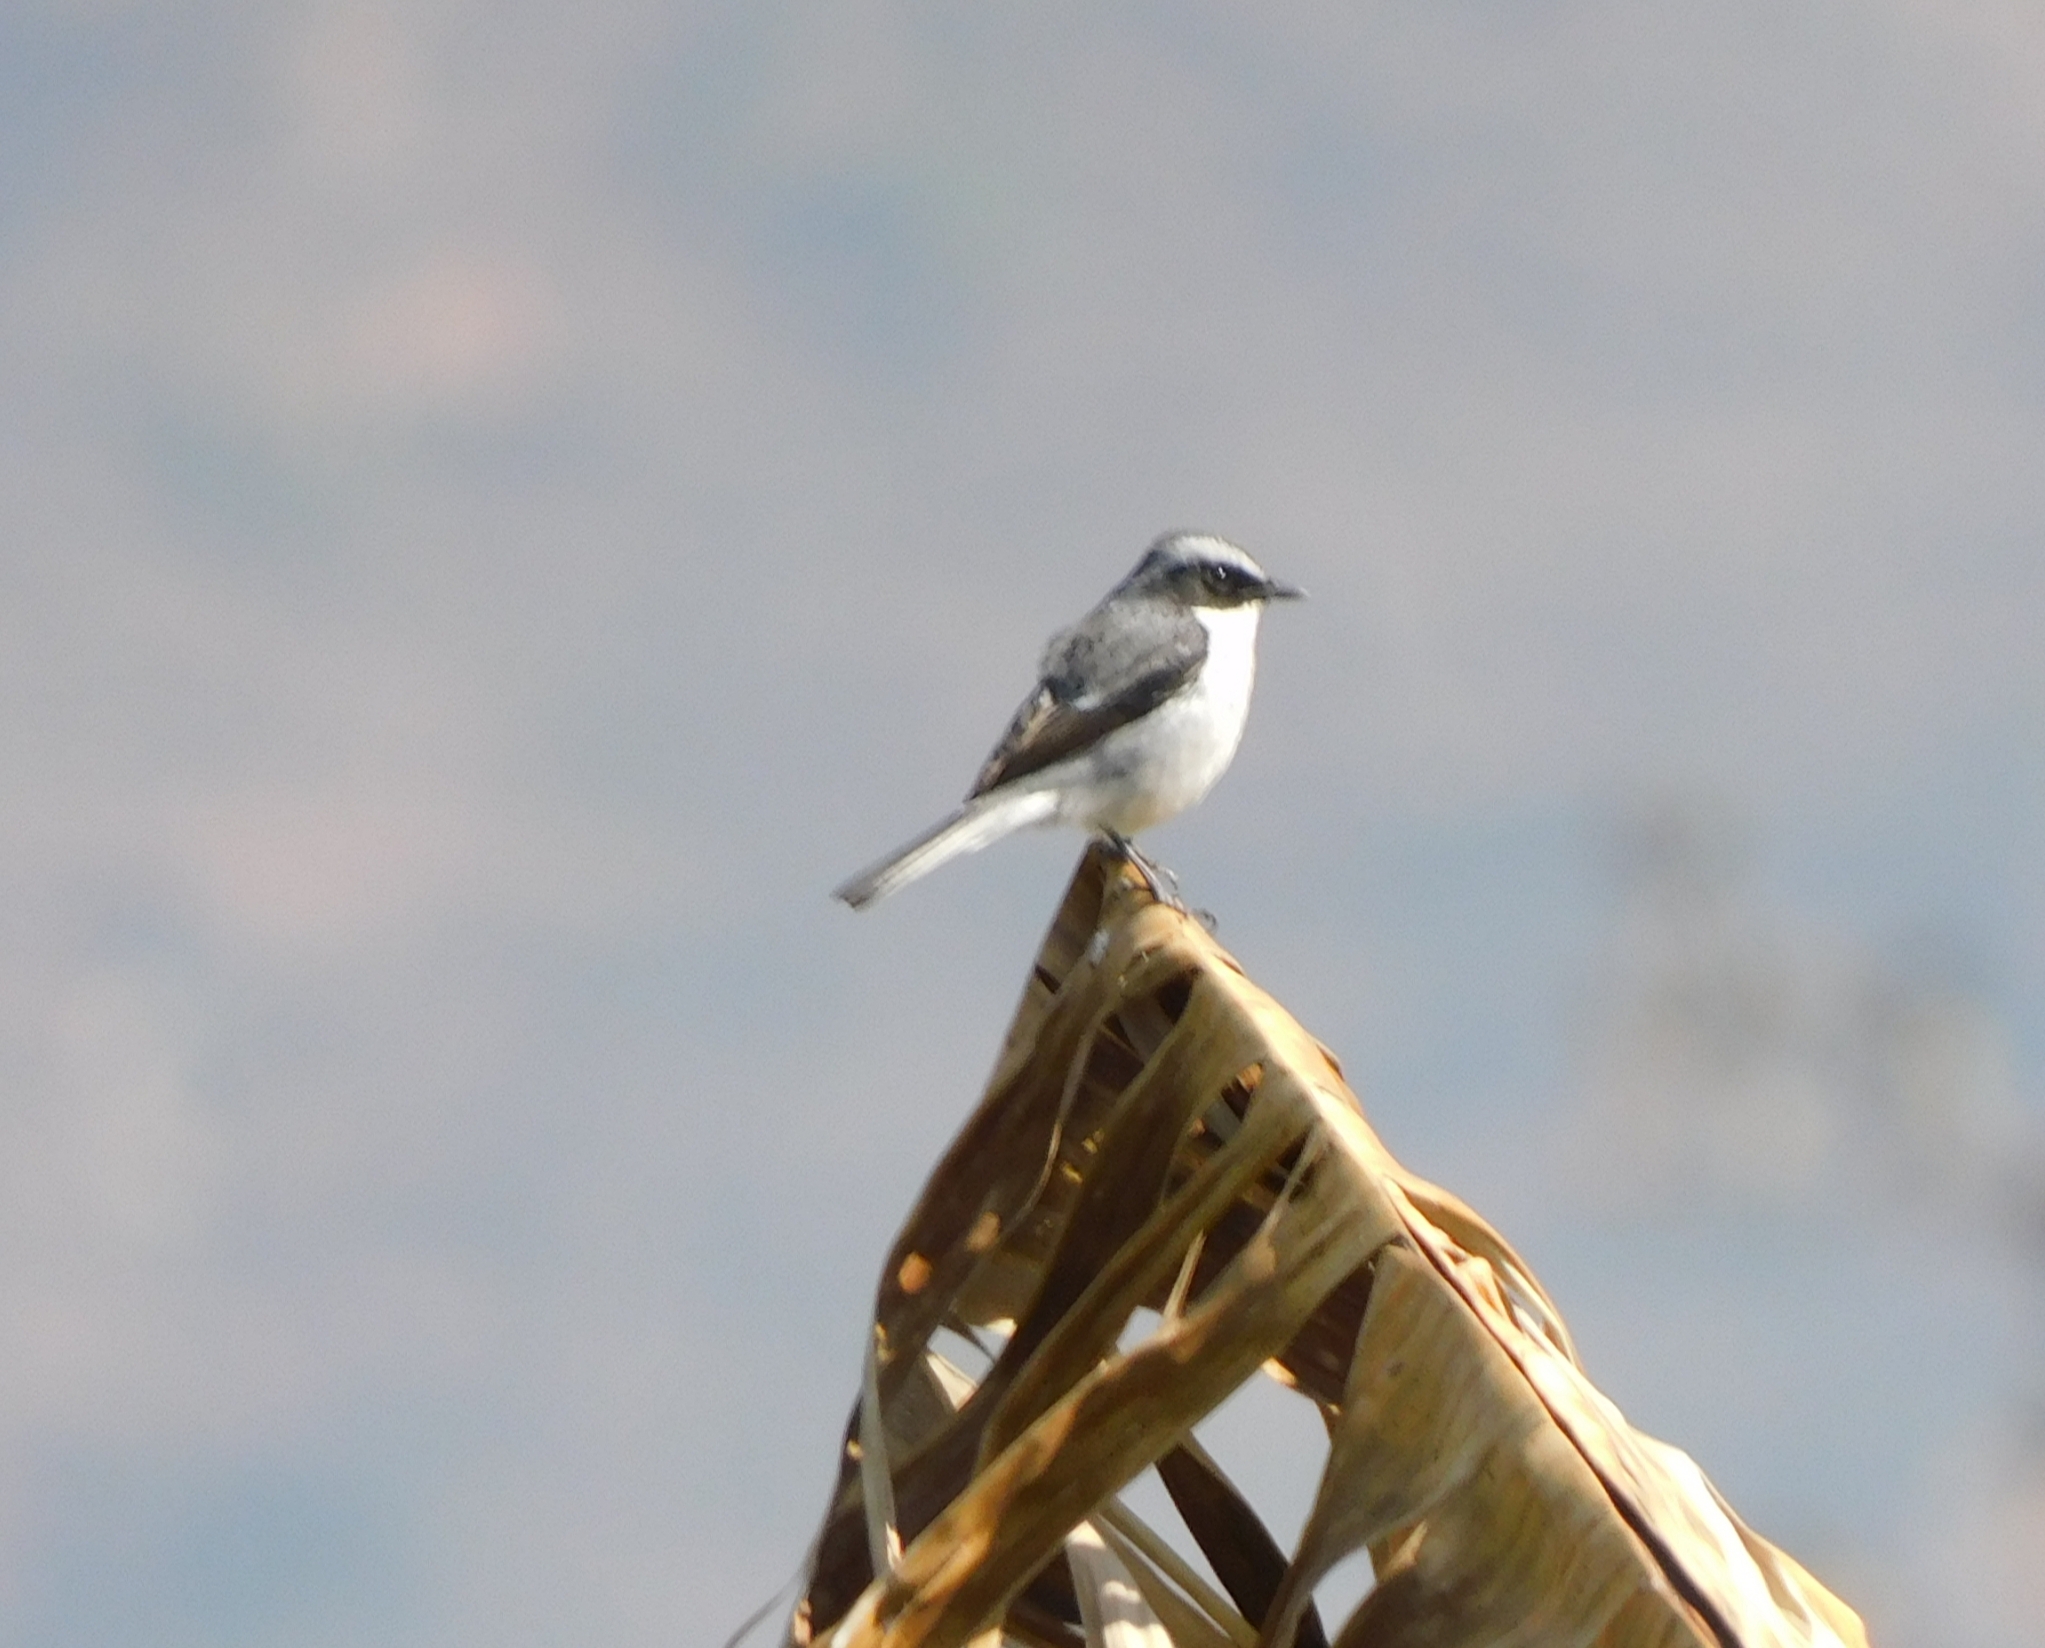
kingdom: Animalia
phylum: Chordata
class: Aves
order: Passeriformes
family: Muscicapidae
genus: Saxicola
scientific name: Saxicola ferreus
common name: Grey bush chat
